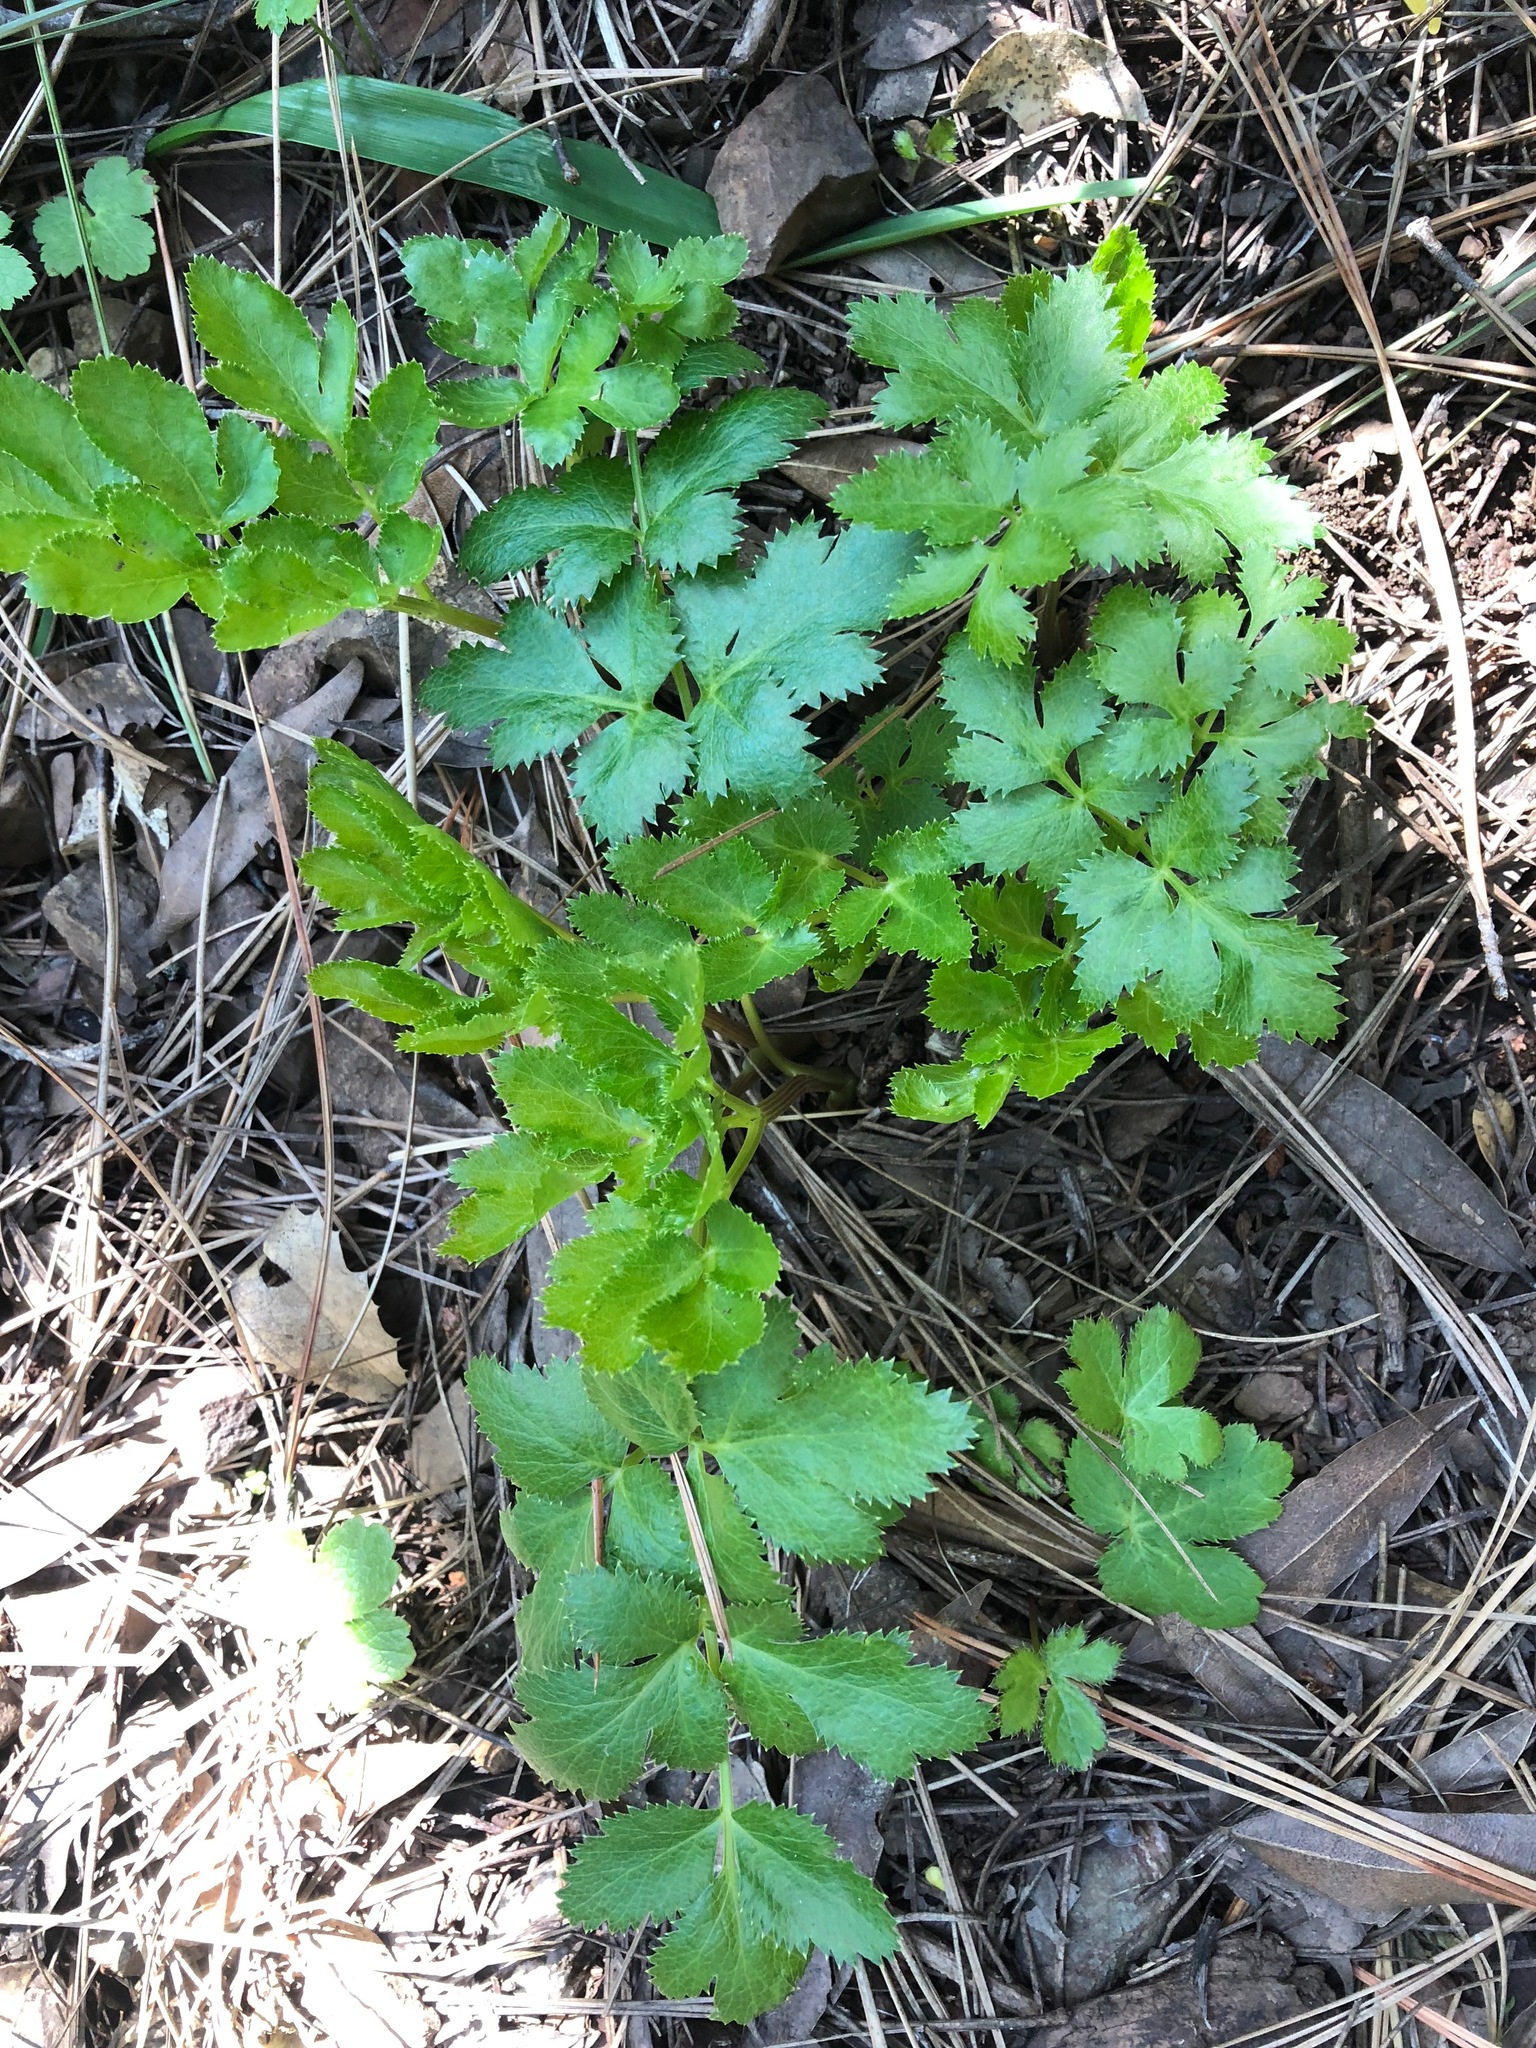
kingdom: Plantae
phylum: Tracheophyta
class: Magnoliopsida
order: Apiales
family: Apiaceae
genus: Tauschia
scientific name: Tauschia hartwegii
